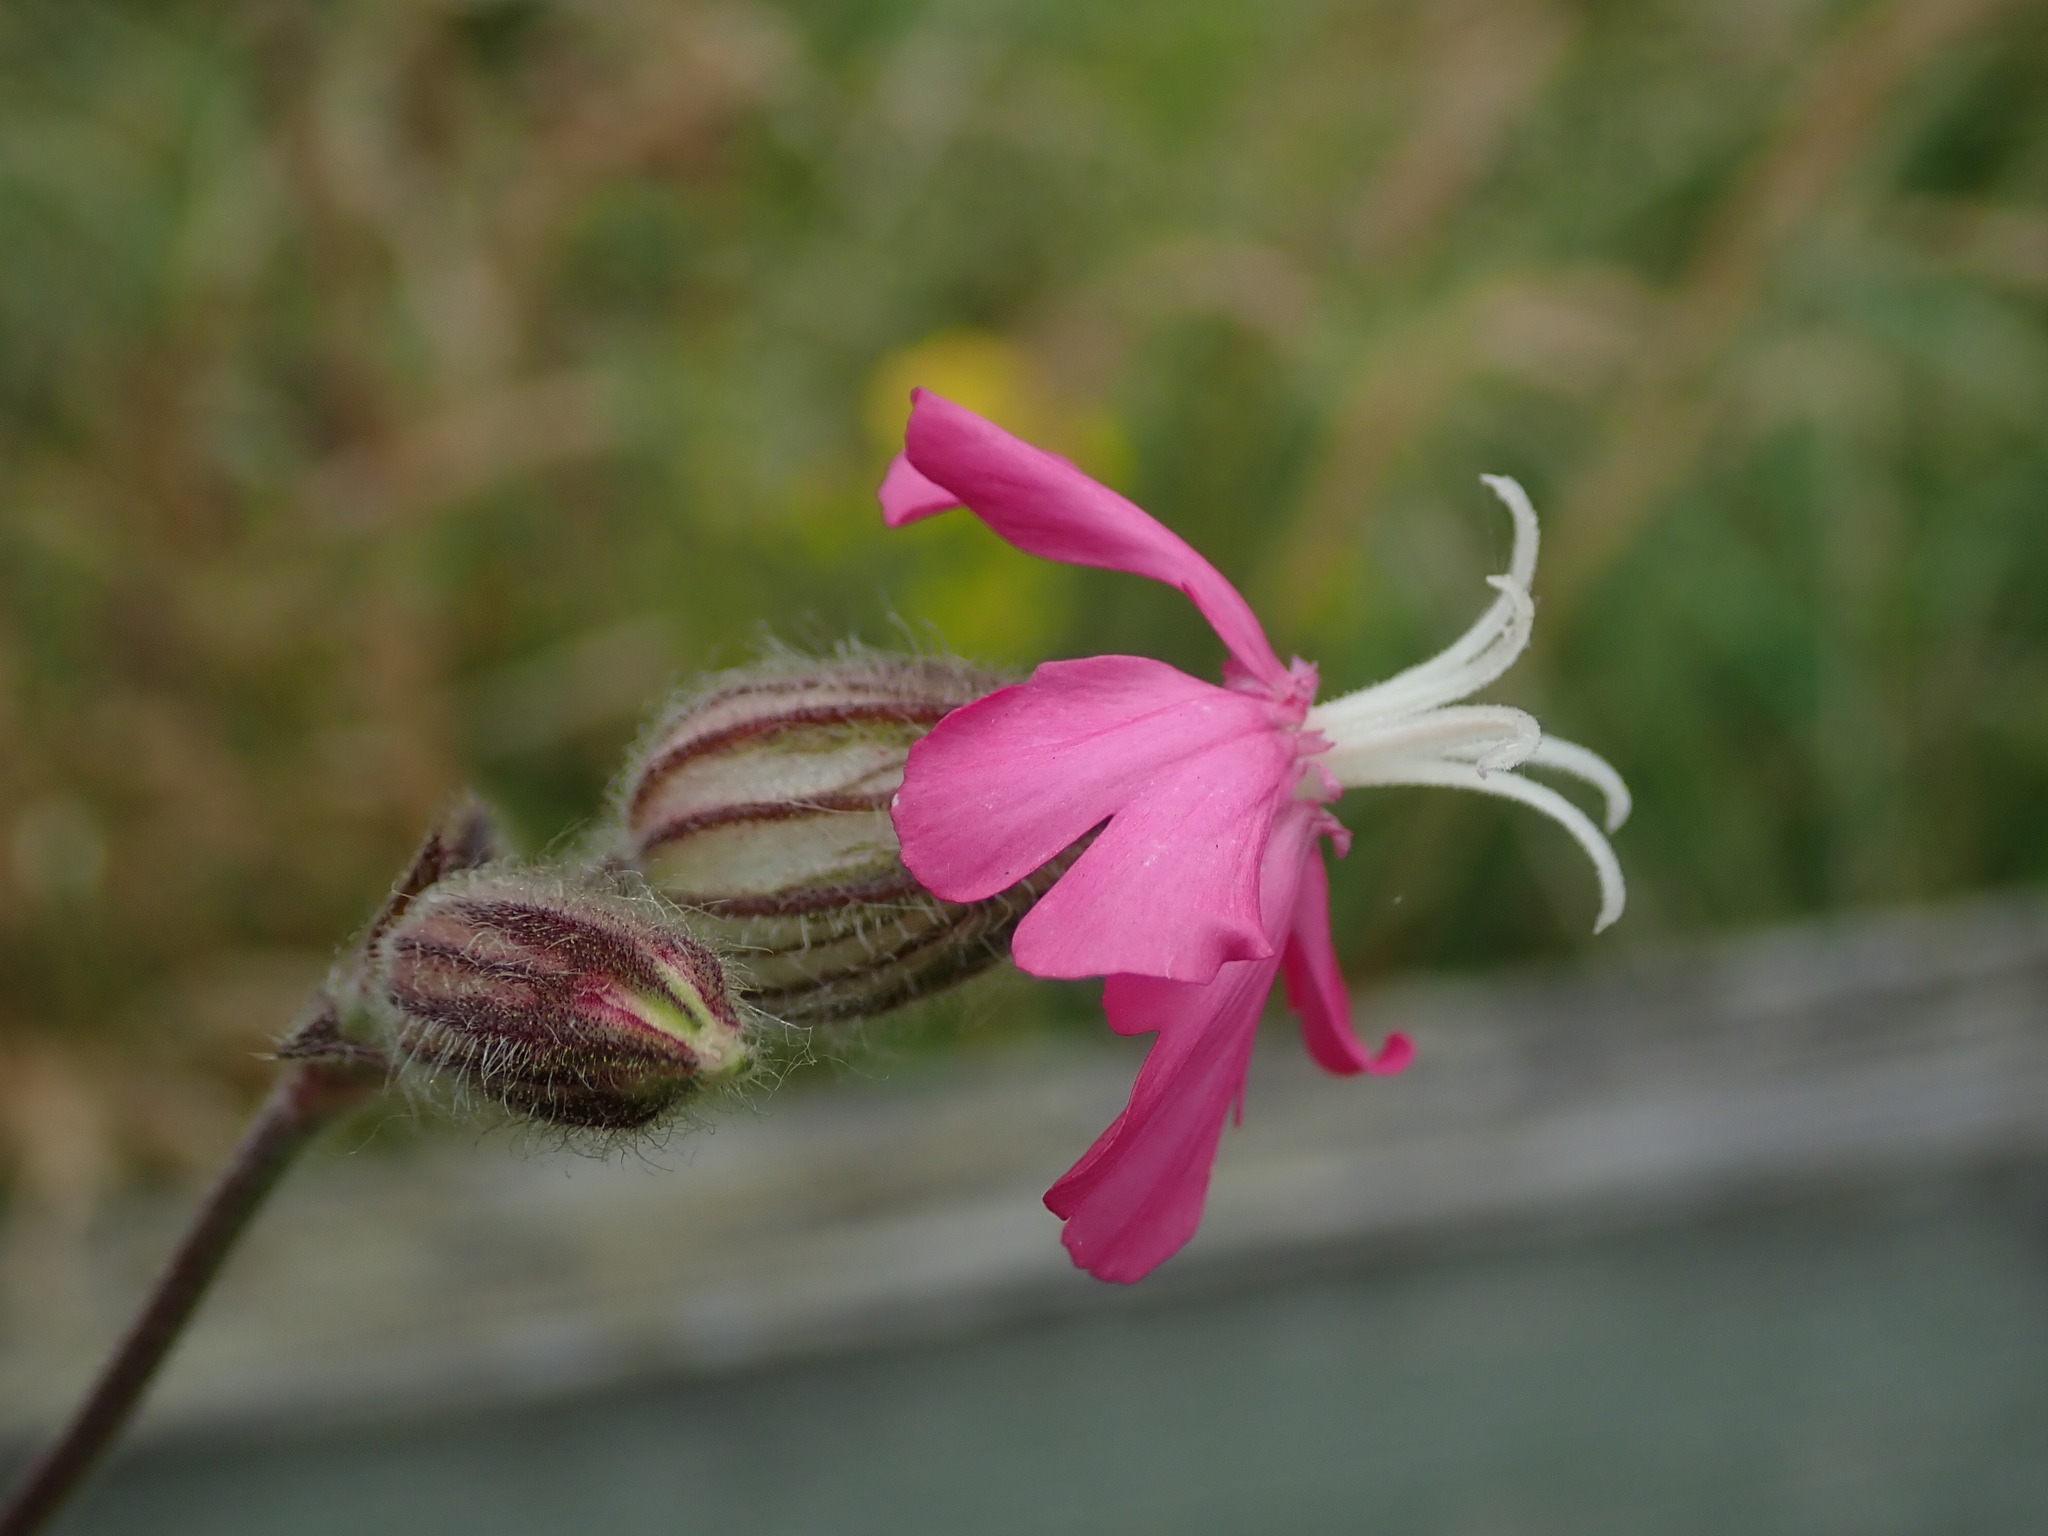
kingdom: Plantae
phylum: Tracheophyta
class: Magnoliopsida
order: Caryophyllales
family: Caryophyllaceae
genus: Silene
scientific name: Silene dioica
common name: Red campion
